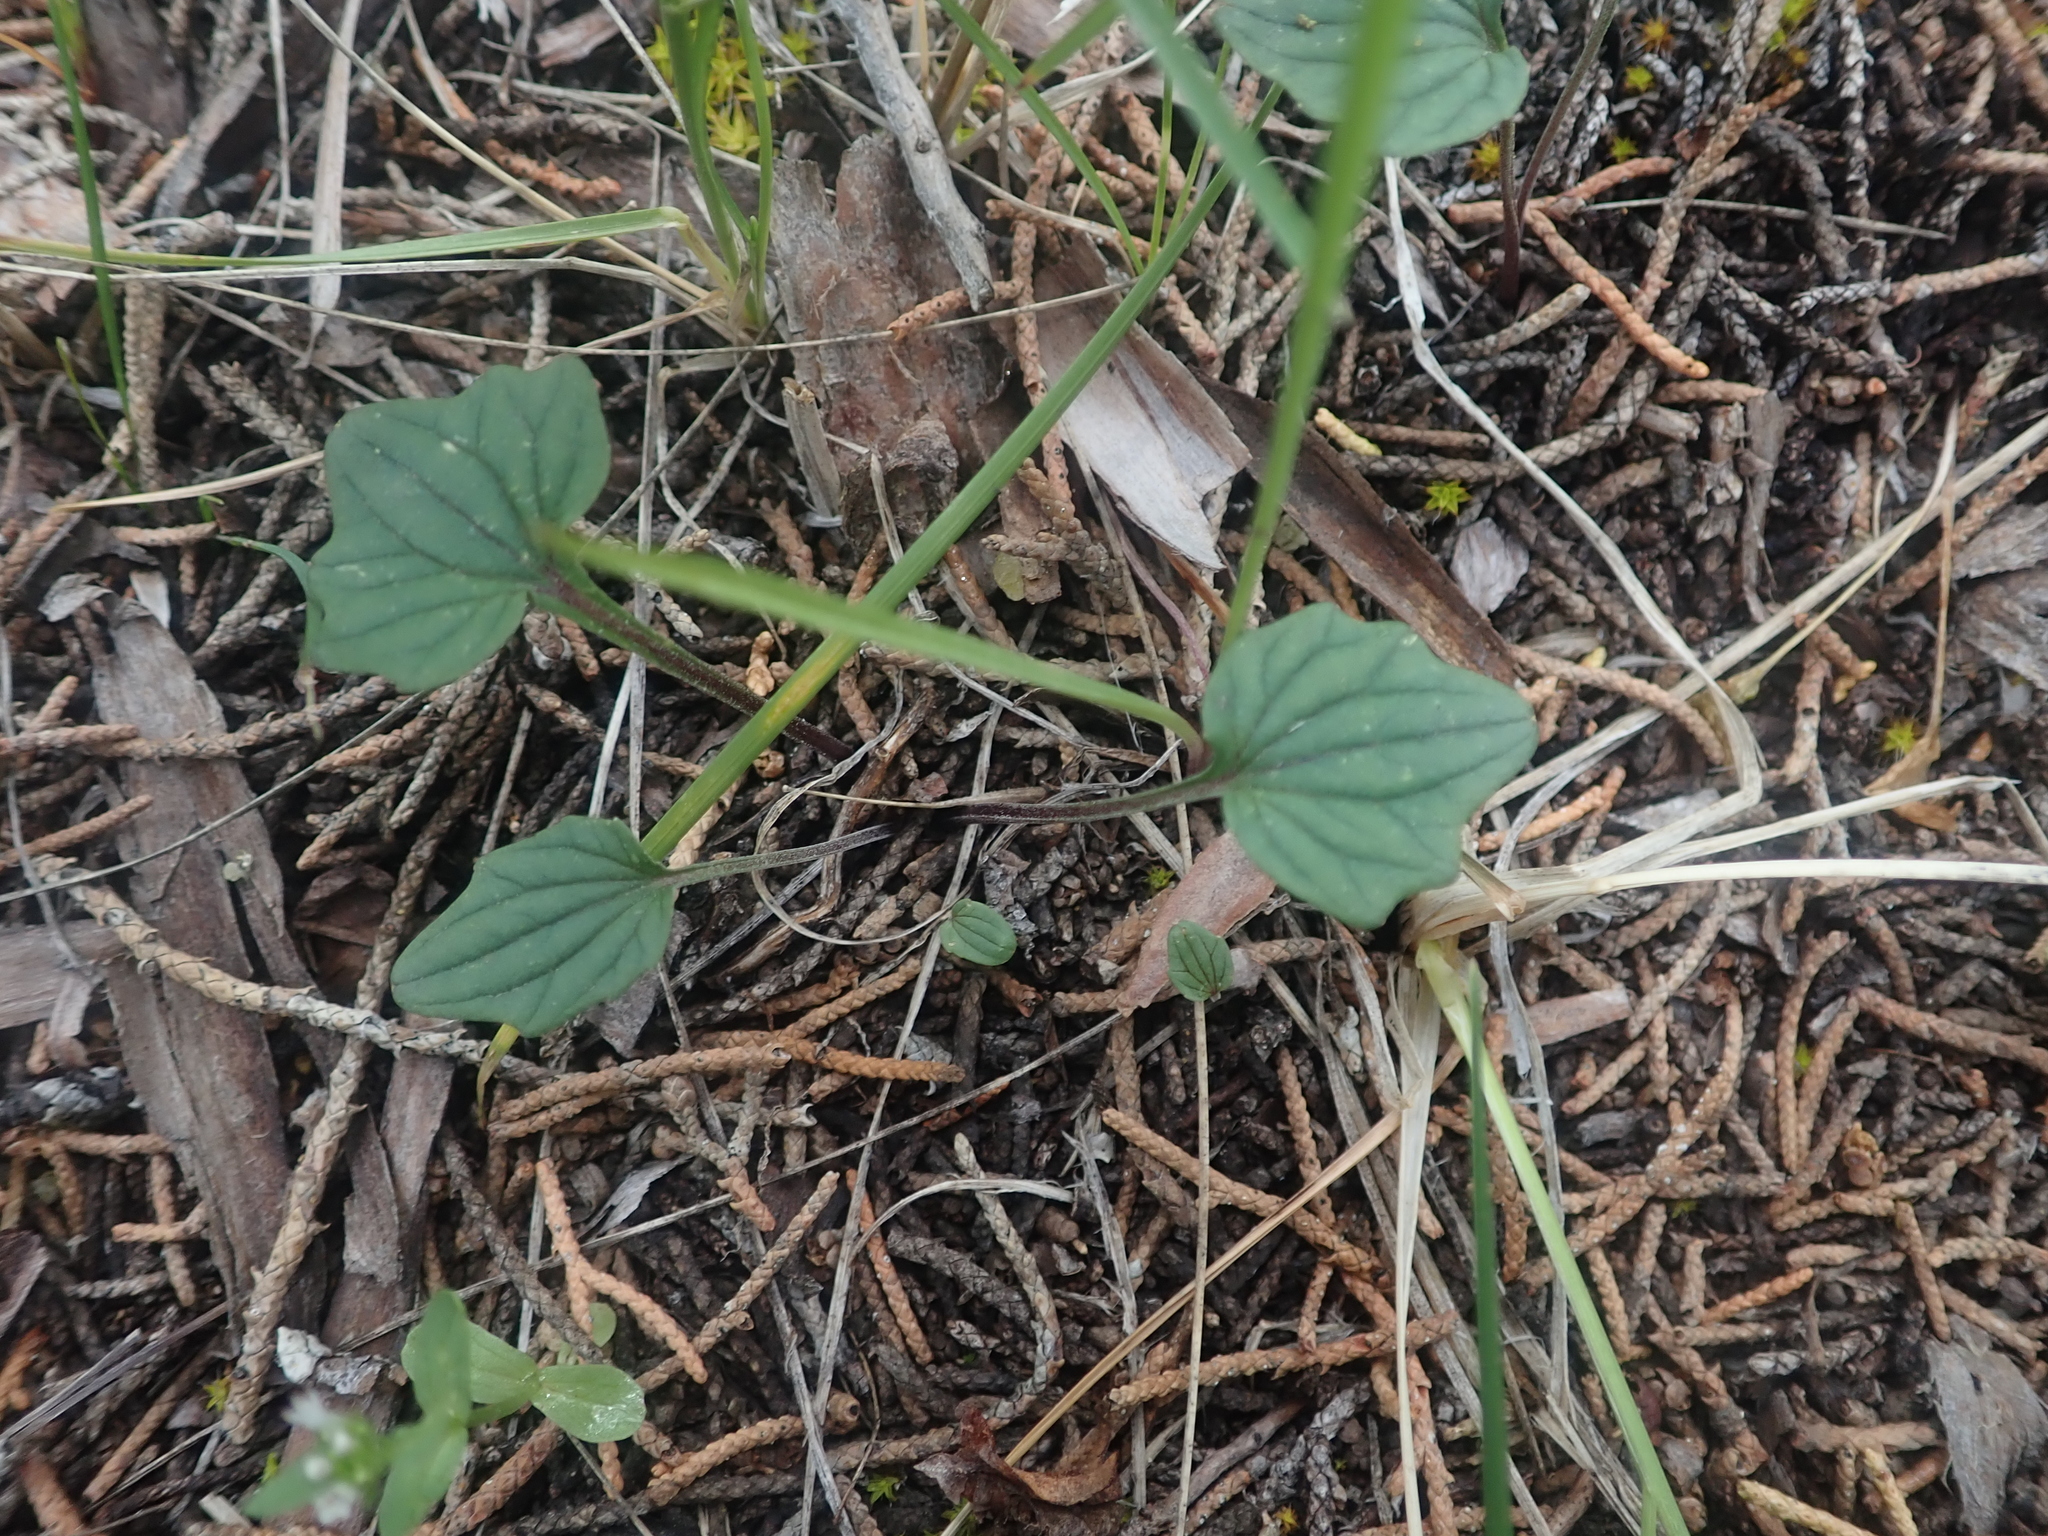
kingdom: Plantae
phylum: Tracheophyta
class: Magnoliopsida
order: Malpighiales
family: Violaceae
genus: Viola
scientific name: Viola purpurea
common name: Pine violet
